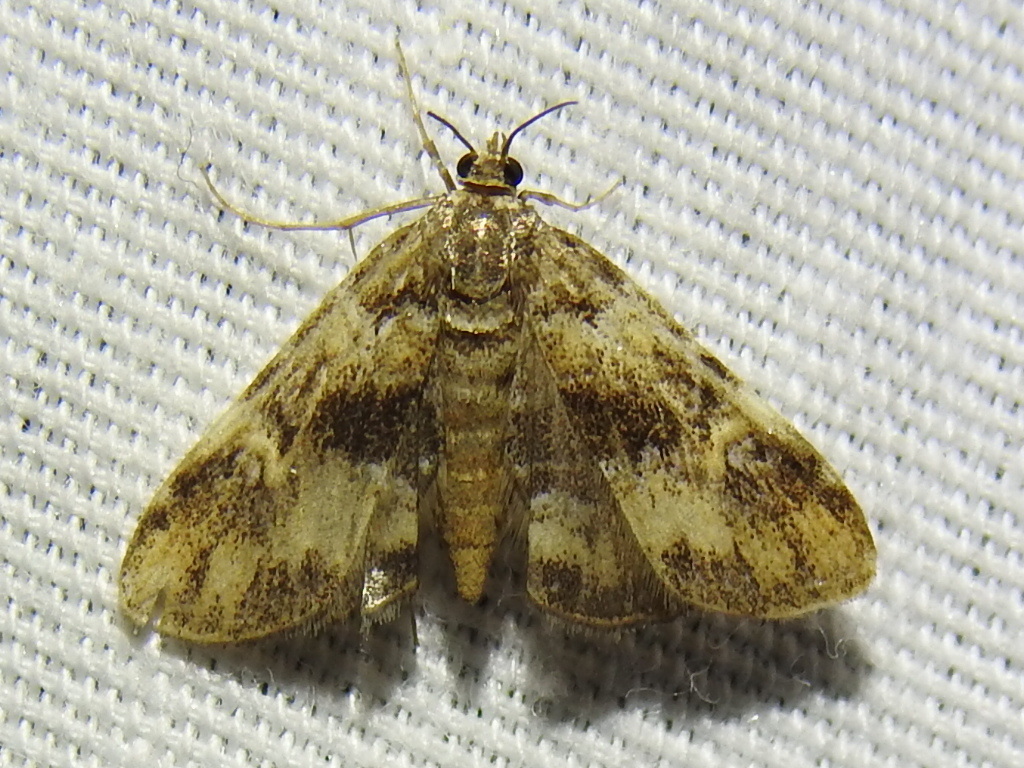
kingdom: Animalia
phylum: Arthropoda
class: Insecta
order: Lepidoptera
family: Crambidae
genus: Elophila
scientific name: Elophila obliteralis
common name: Waterlily leafcutter moth
